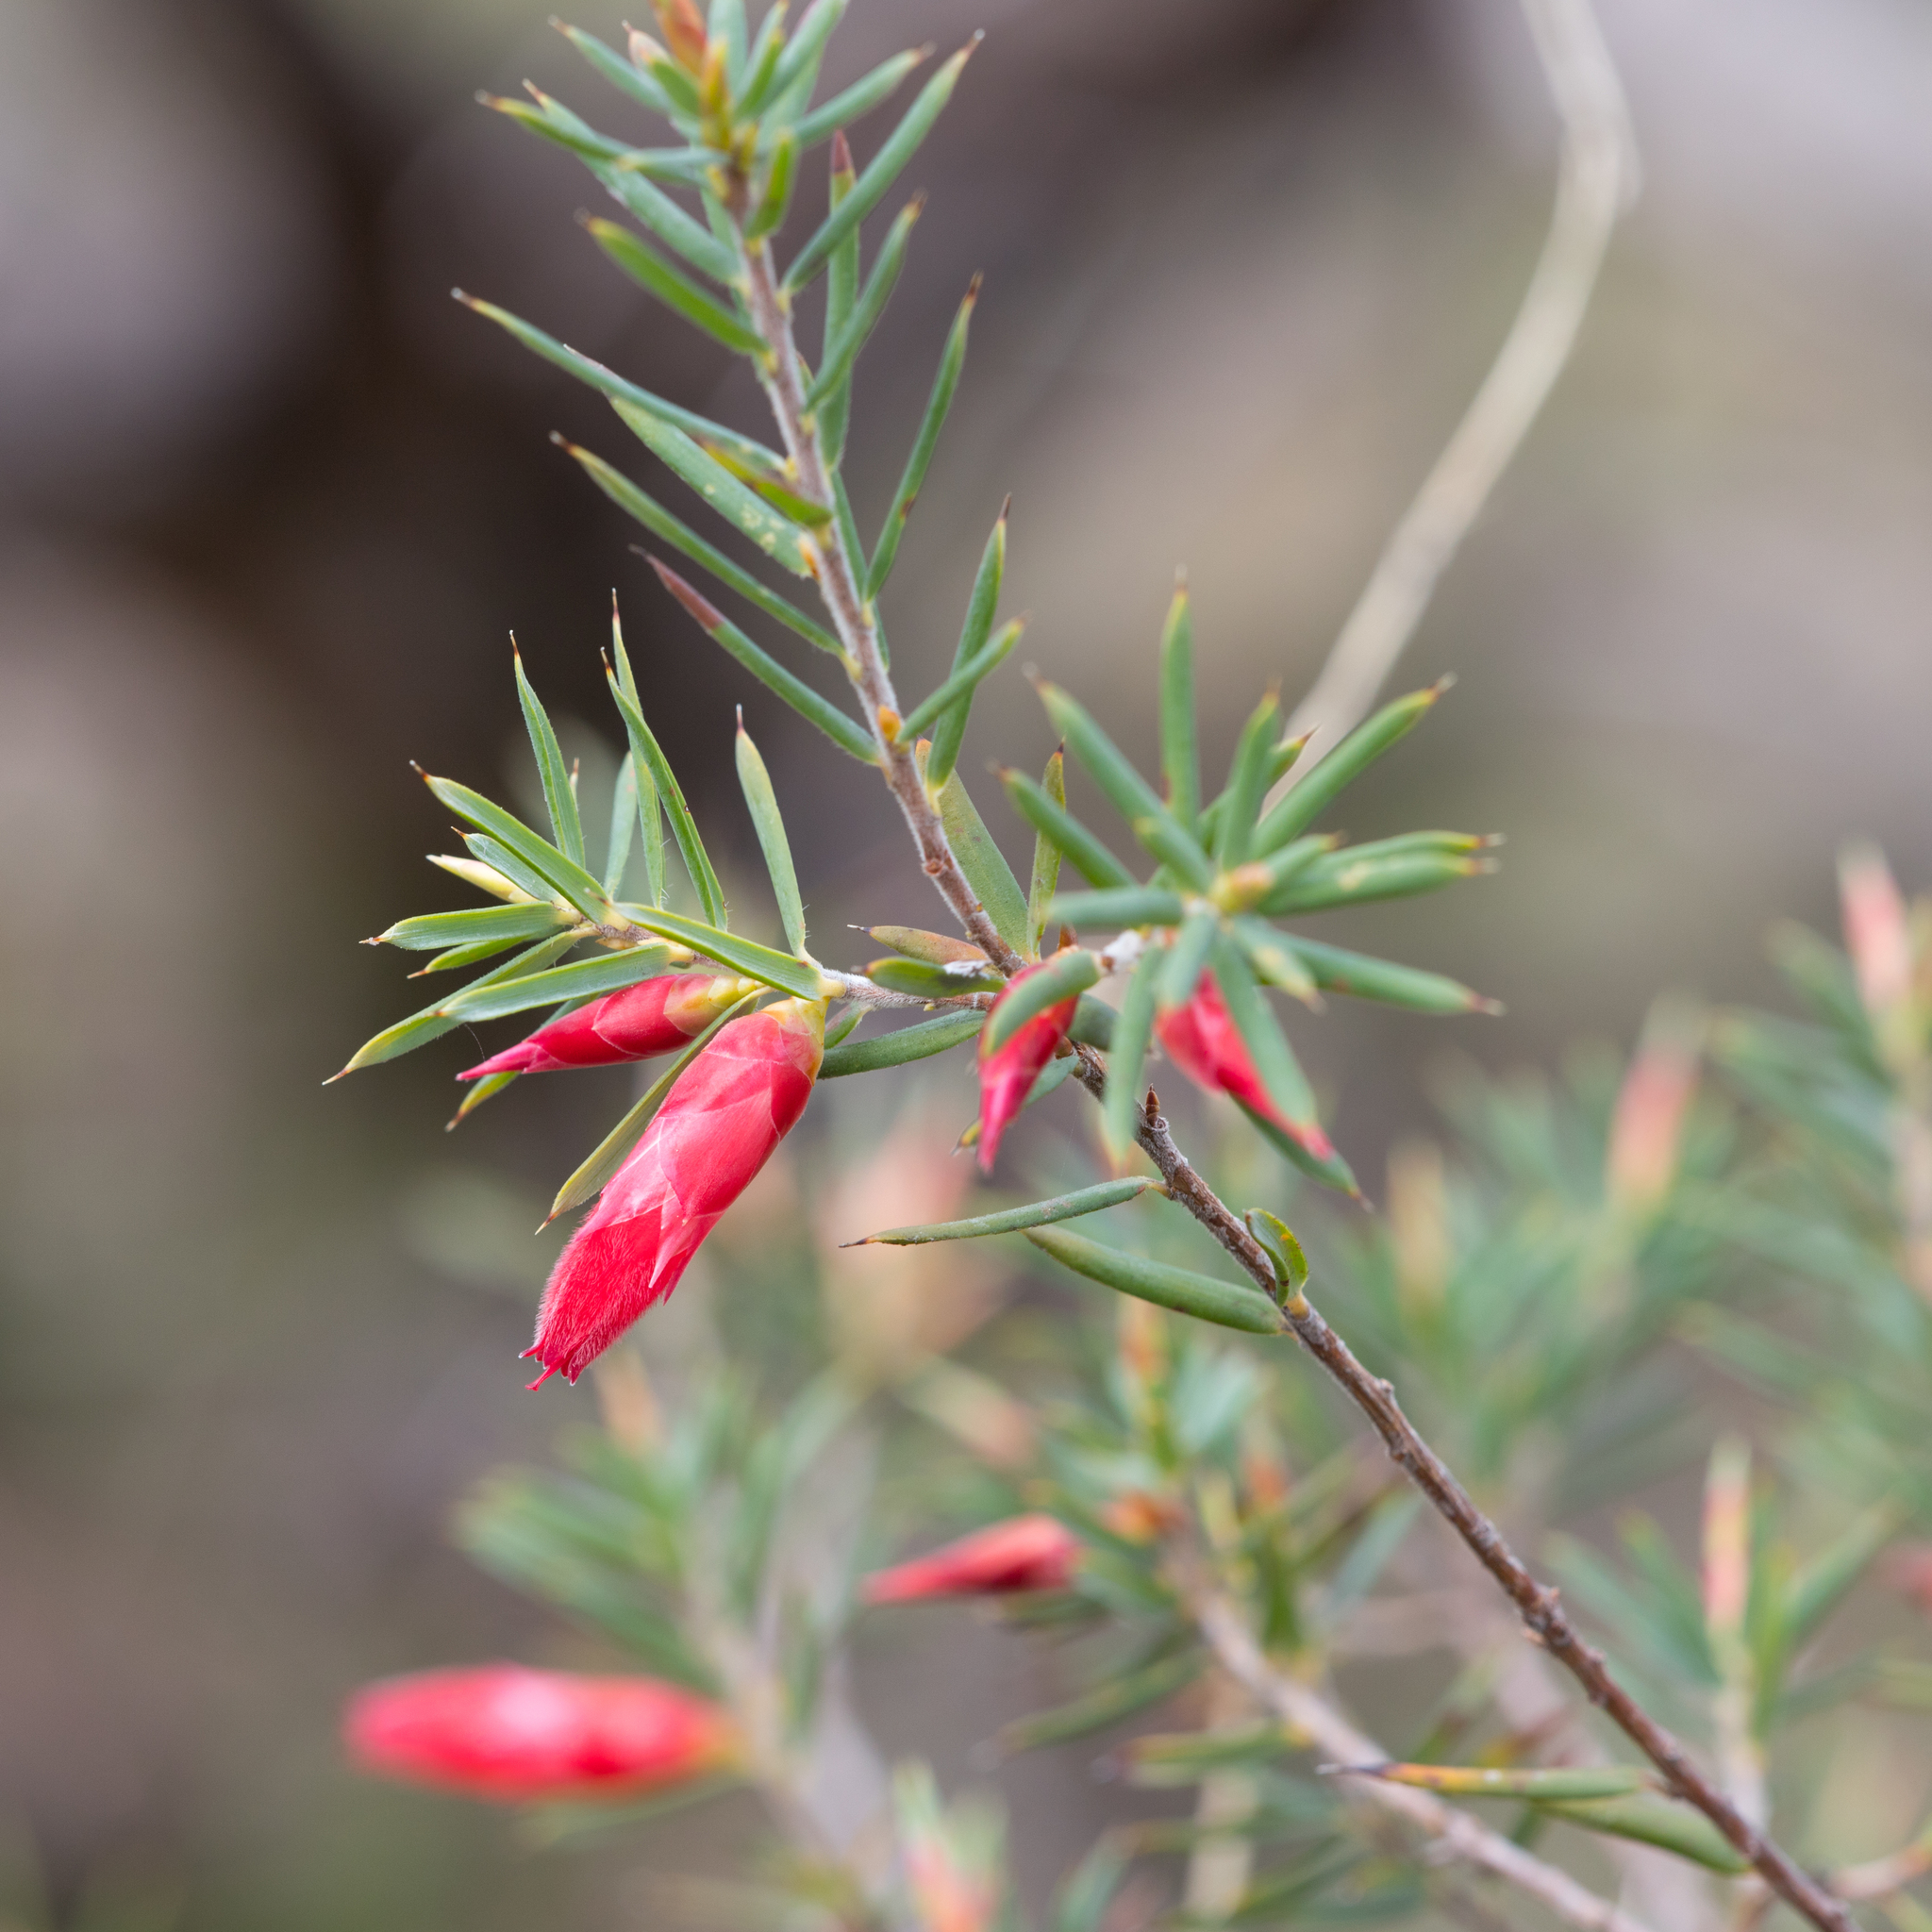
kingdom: Plantae
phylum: Tracheophyta
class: Magnoliopsida
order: Ericales
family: Ericaceae
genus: Stenanthera
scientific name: Stenanthera conostephioides
